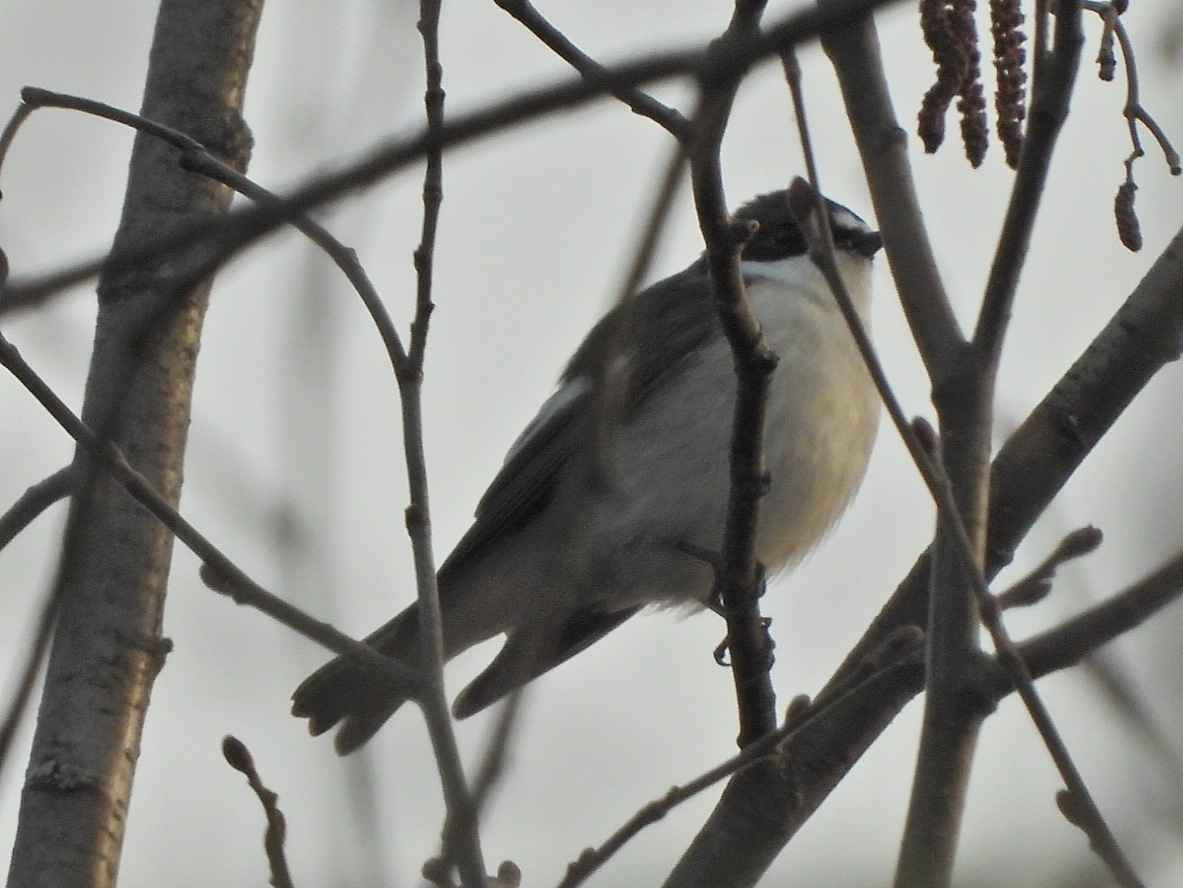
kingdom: Animalia
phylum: Chordata
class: Aves
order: Passeriformes
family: Muscicapidae
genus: Ficedula
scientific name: Ficedula hypoleuca
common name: European pied flycatcher
